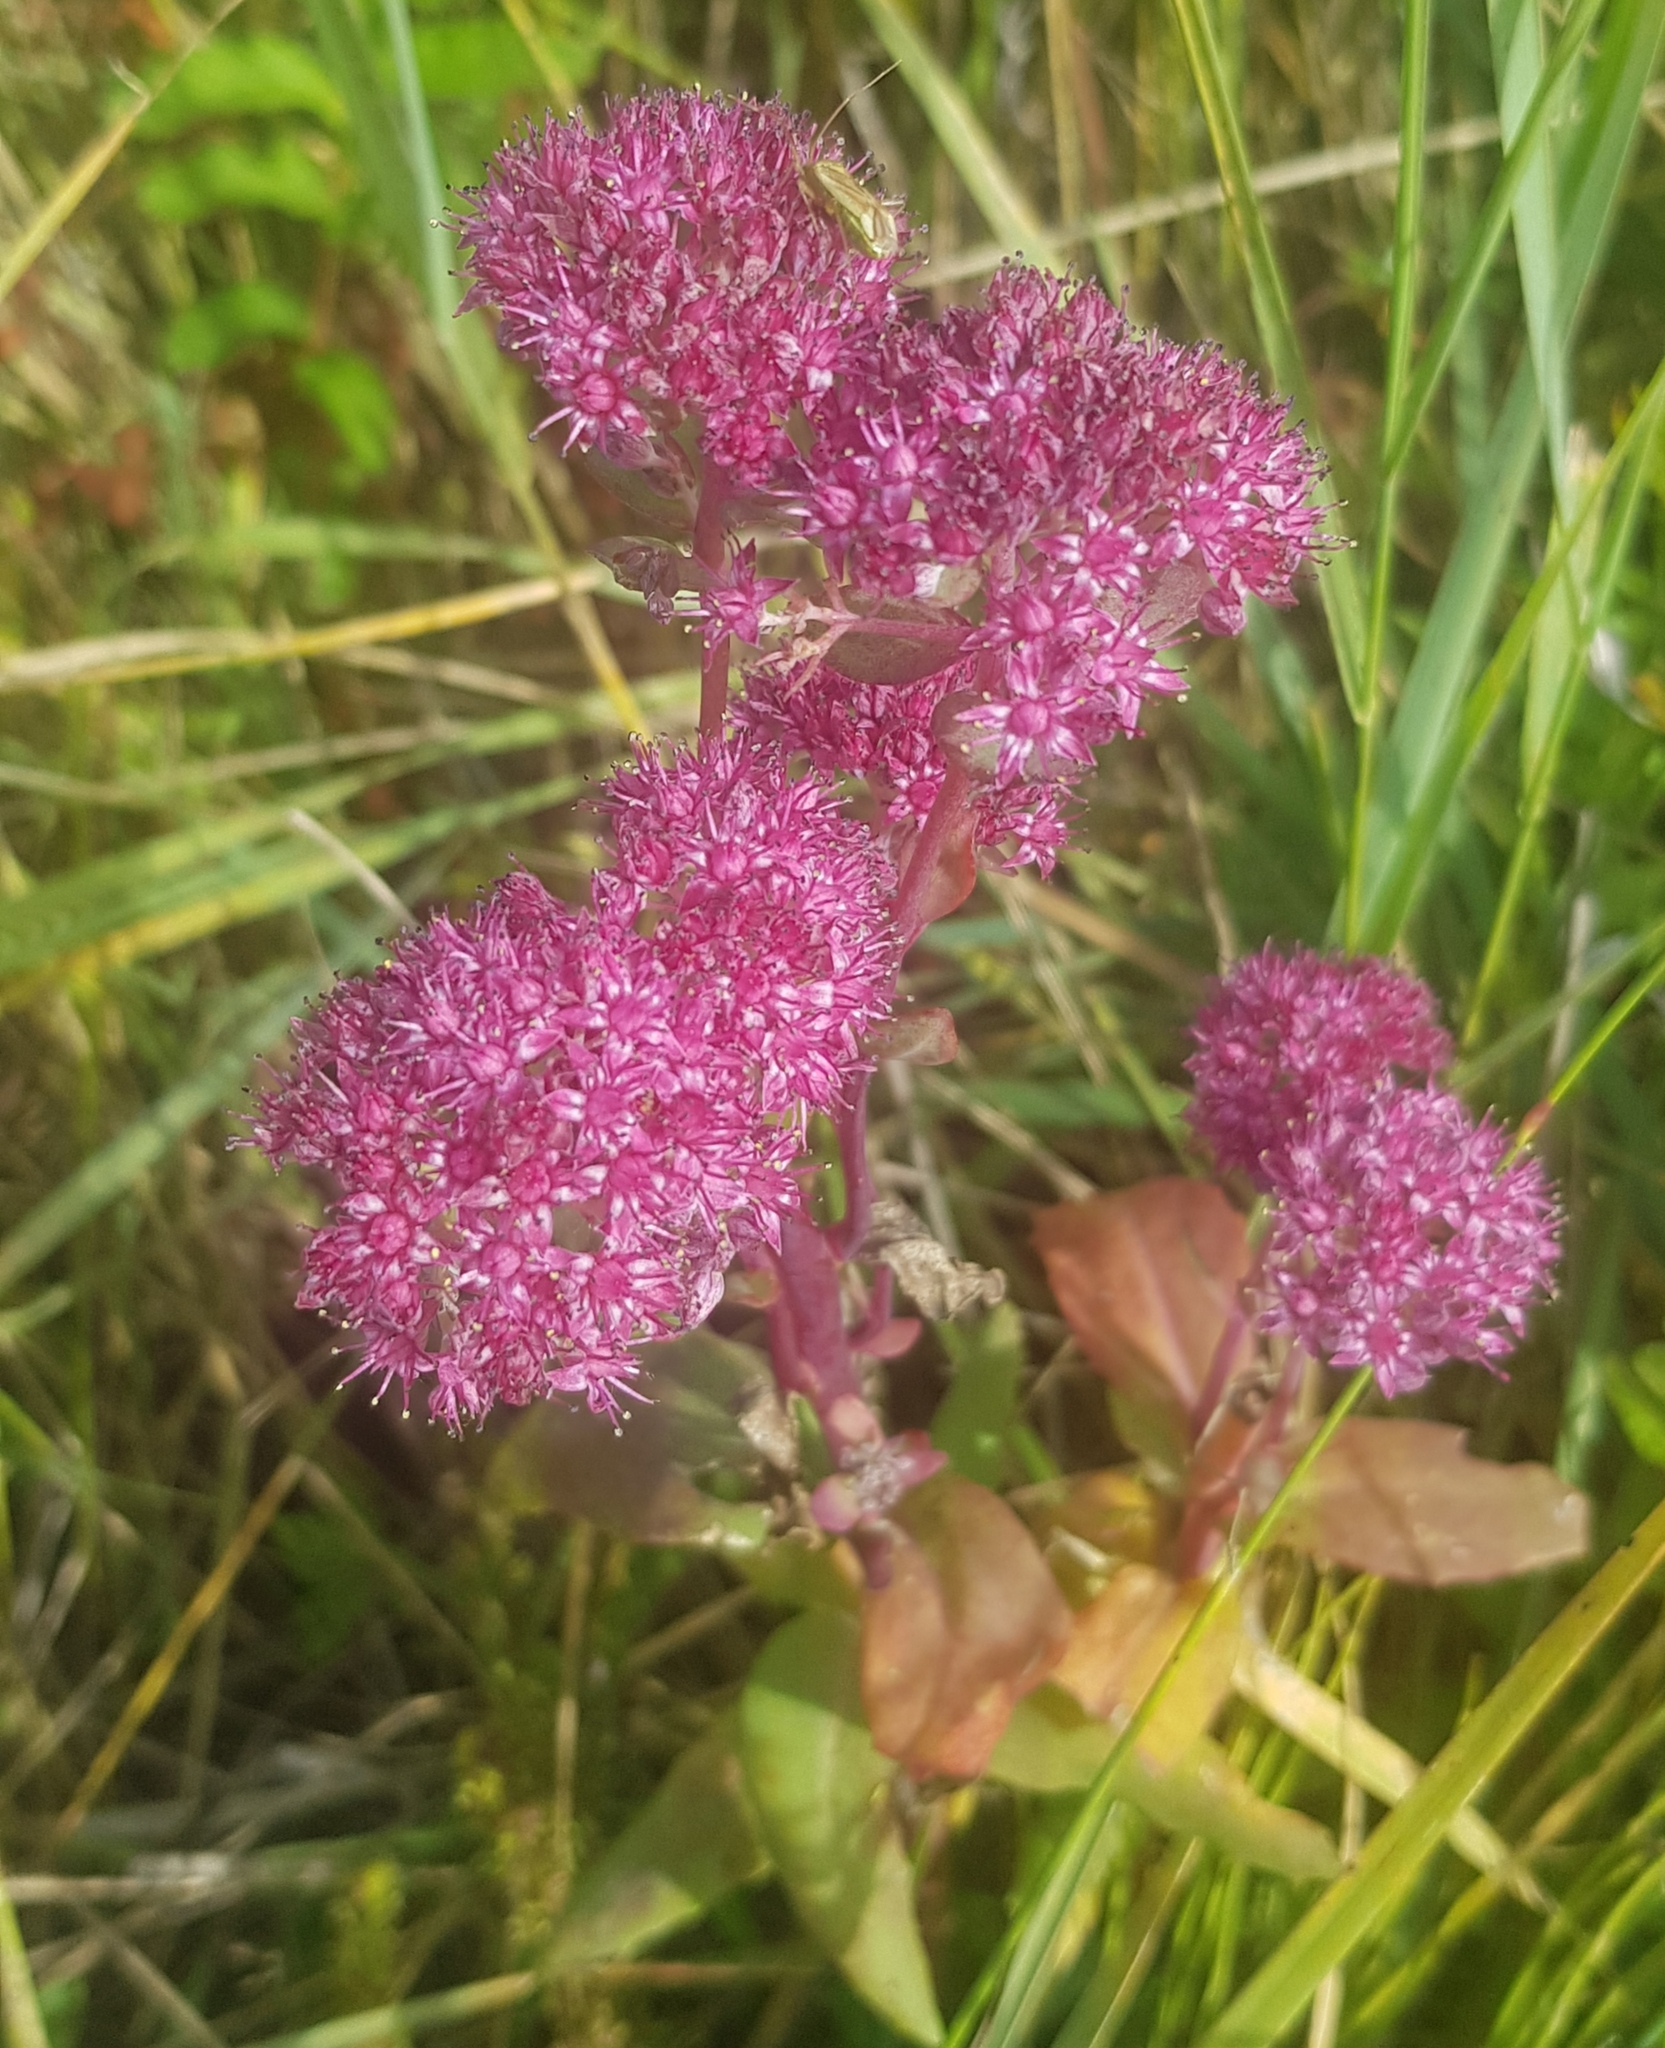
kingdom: Plantae
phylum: Tracheophyta
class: Magnoliopsida
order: Saxifragales
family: Crassulaceae
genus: Hylotelephium
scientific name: Hylotelephium telephium
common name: Live-forever
